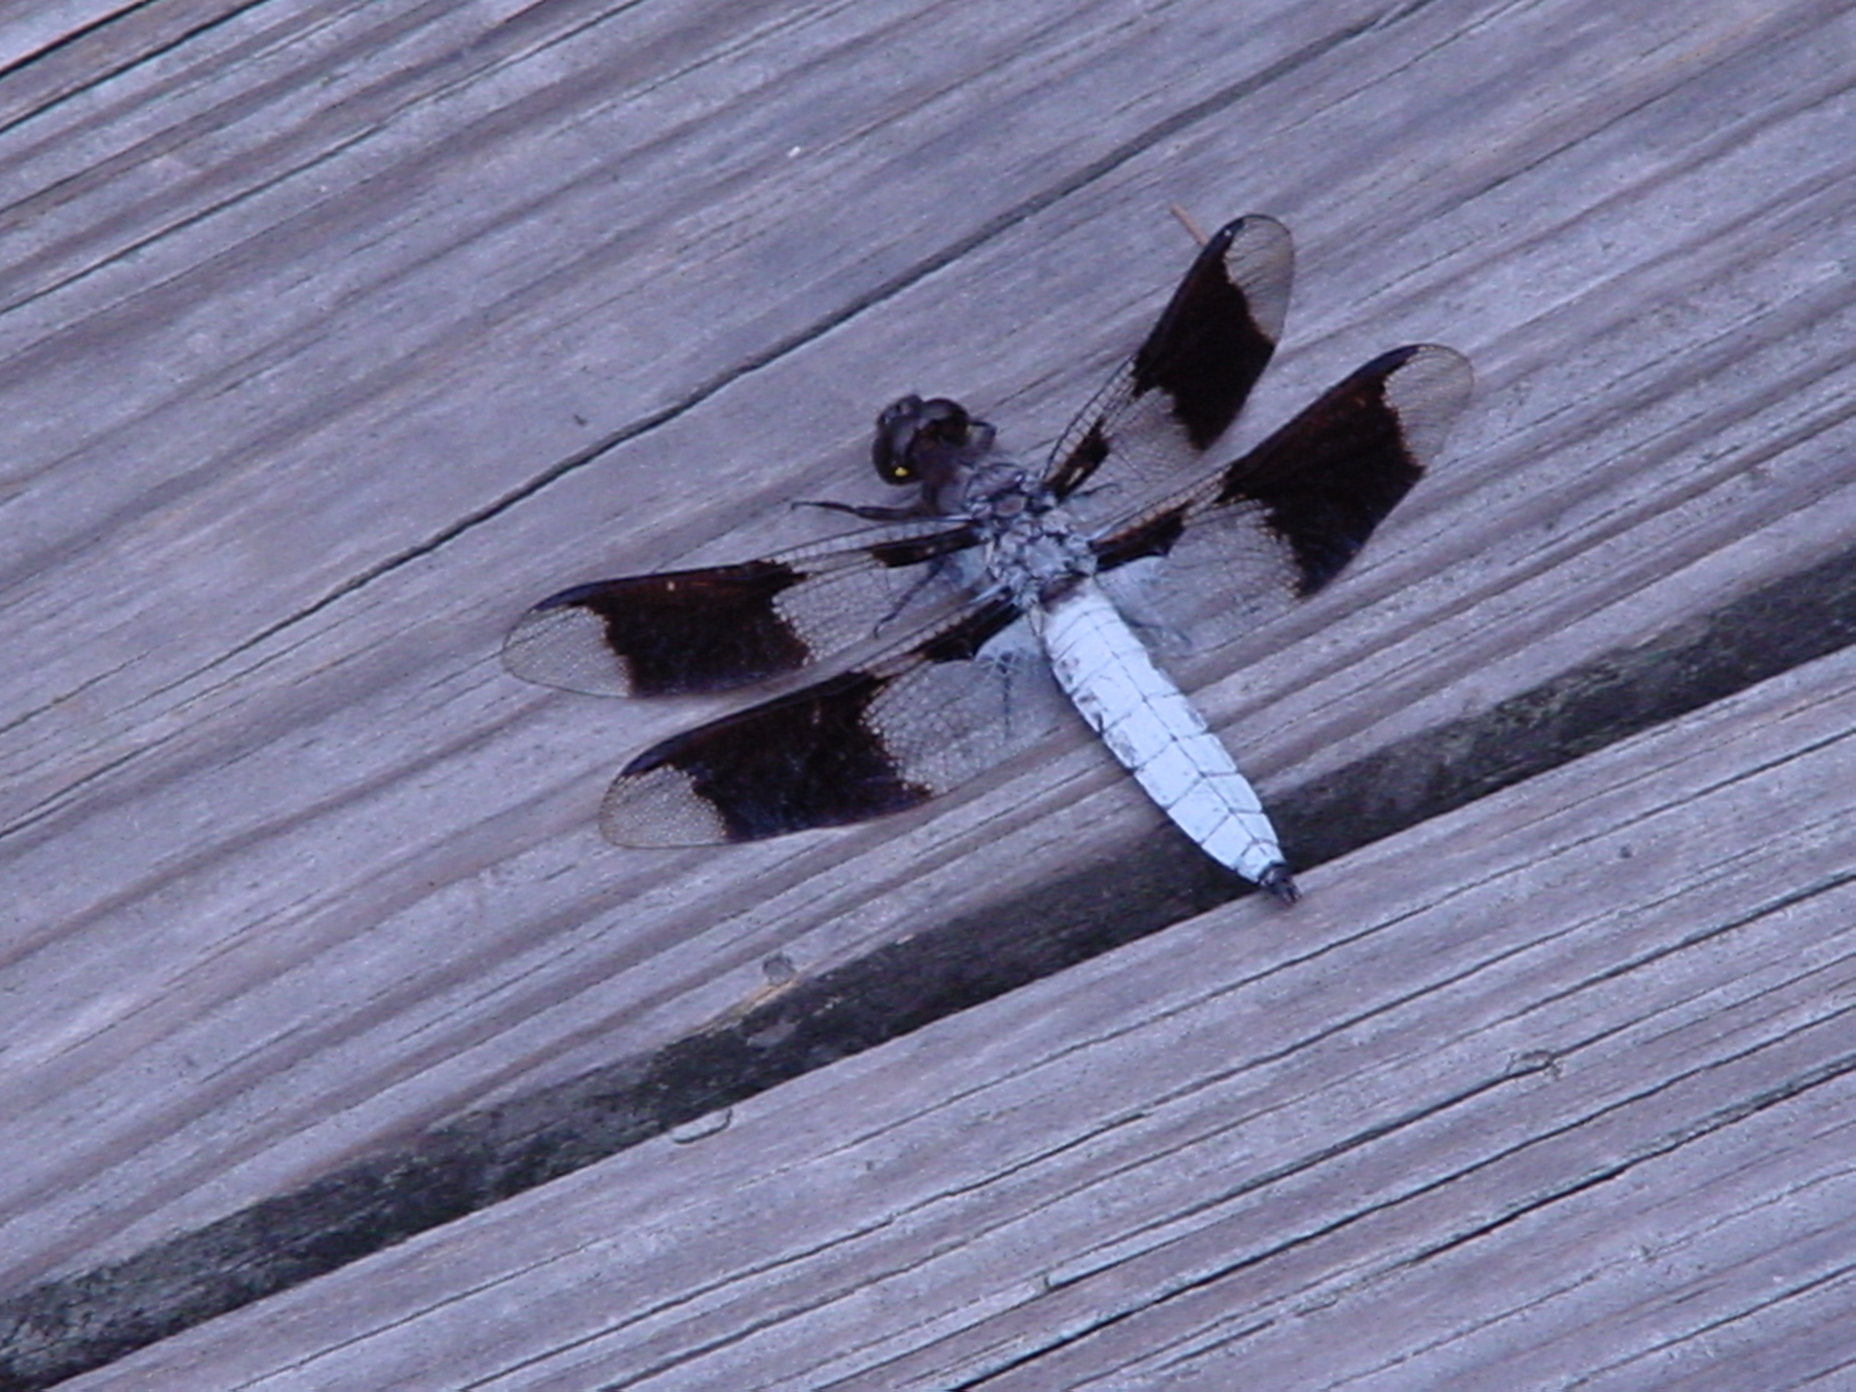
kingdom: Animalia
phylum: Arthropoda
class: Insecta
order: Odonata
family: Libellulidae
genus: Plathemis
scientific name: Plathemis lydia
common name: Common whitetail
